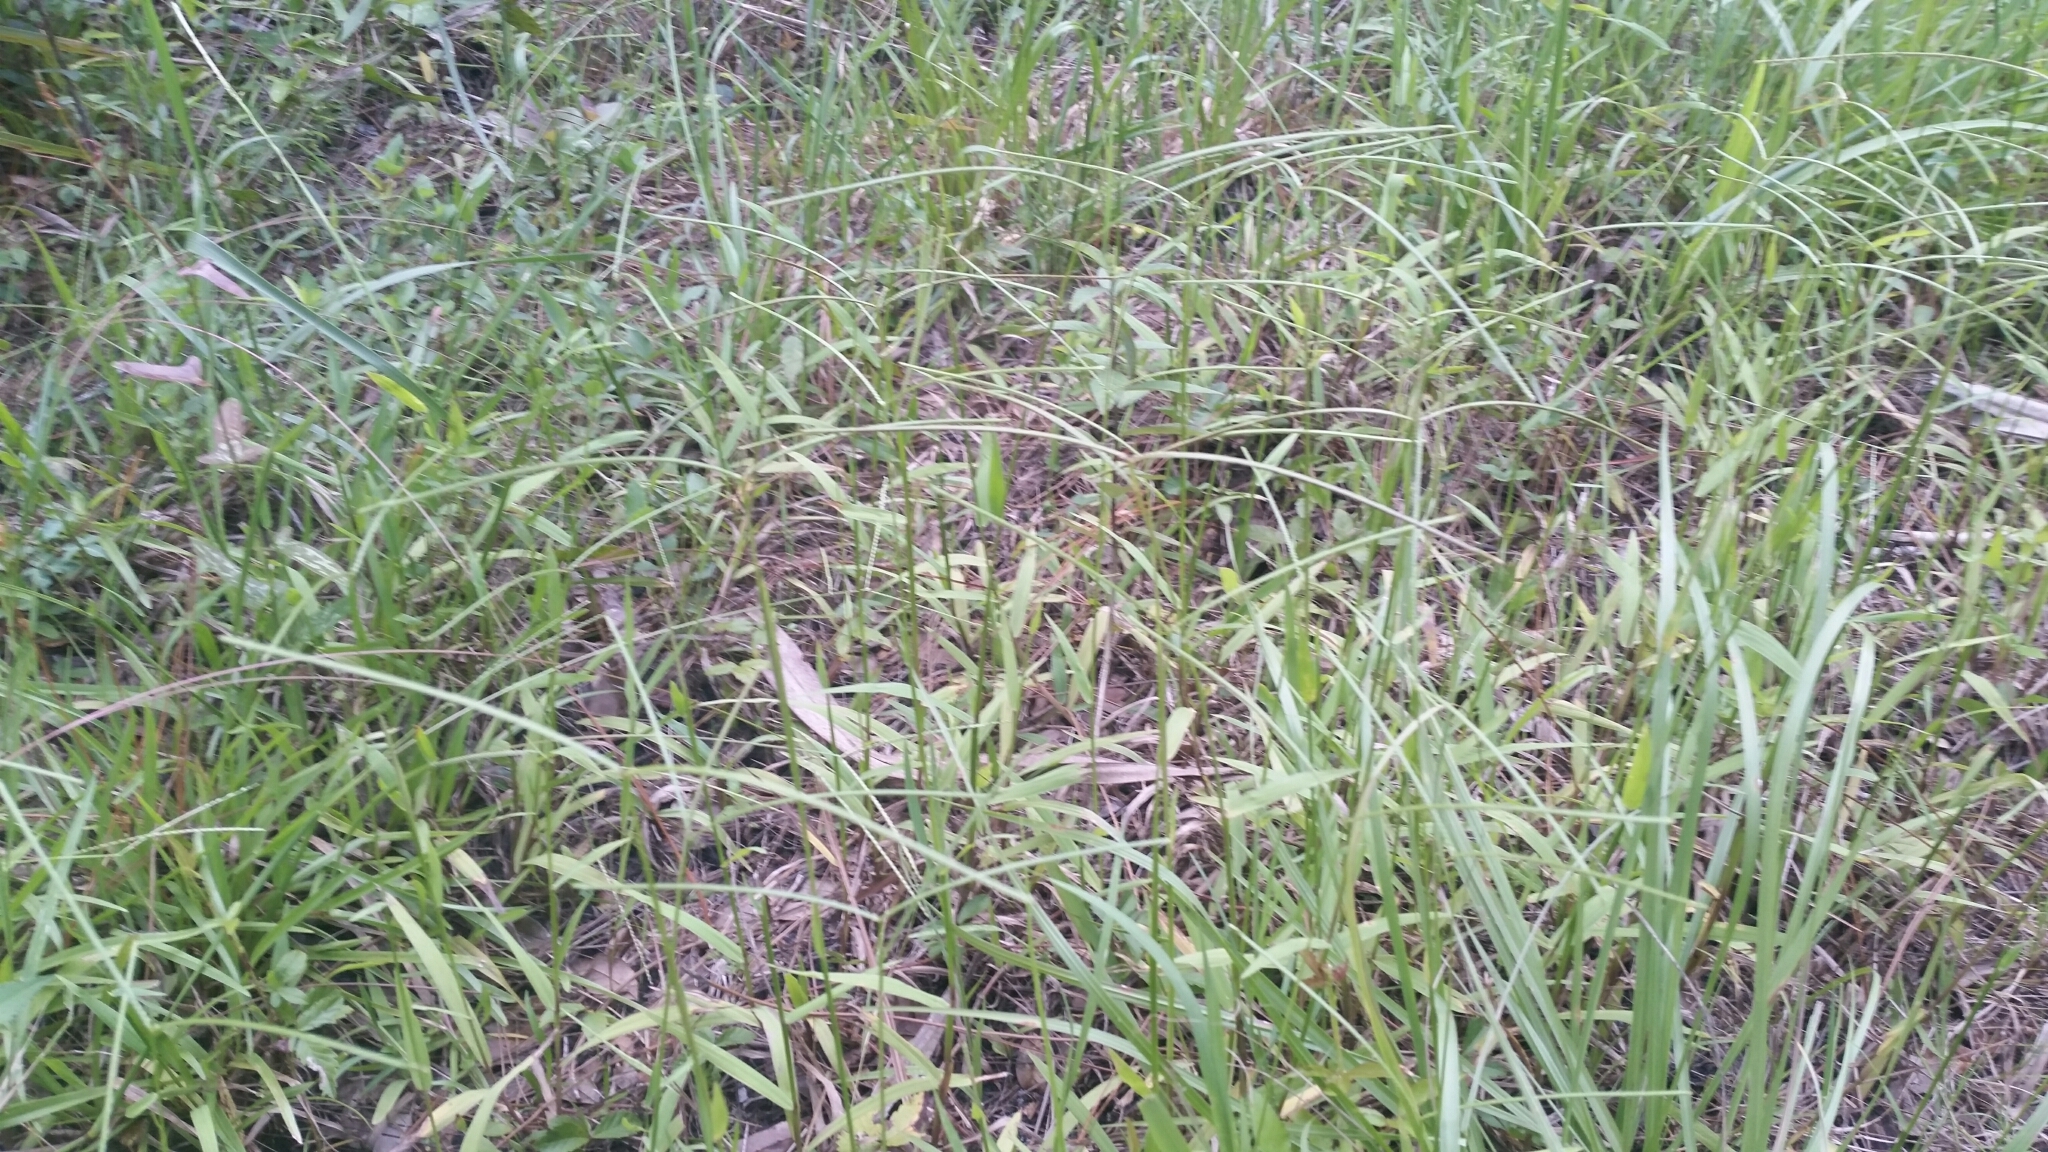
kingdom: Plantae
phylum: Tracheophyta
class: Liliopsida
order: Poales
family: Poaceae
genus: Paspalum
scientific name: Paspalum conjugatum
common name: Hilograss
